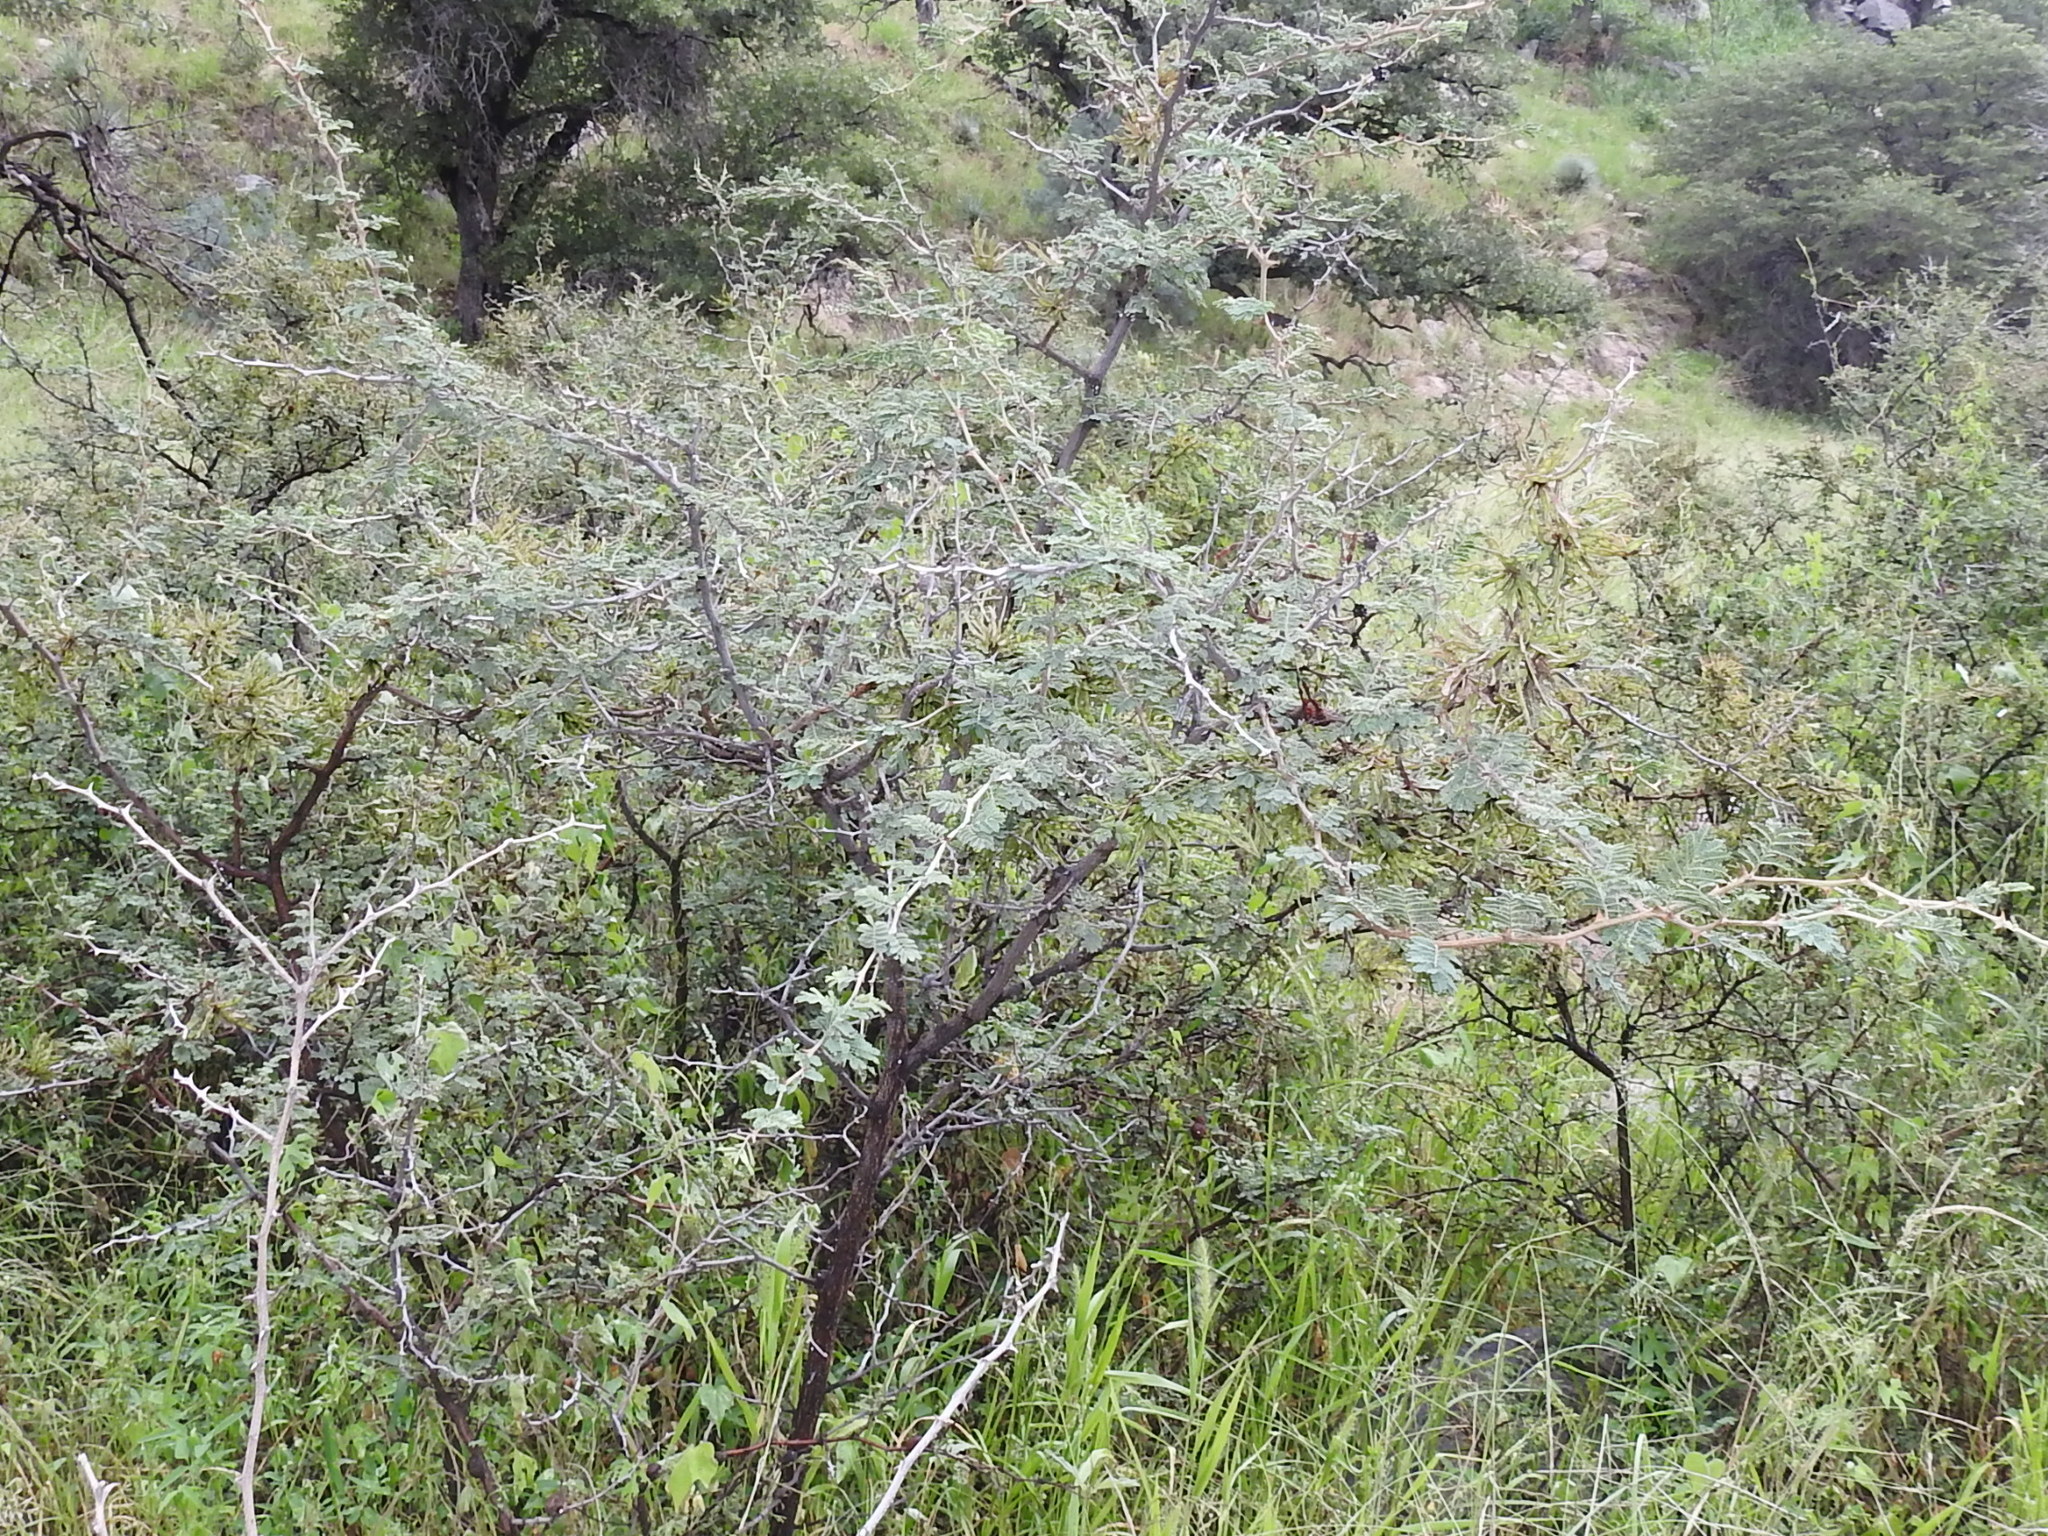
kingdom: Plantae
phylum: Tracheophyta
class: Magnoliopsida
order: Fabales
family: Fabaceae
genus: Mimosa
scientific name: Mimosa biuncifera
